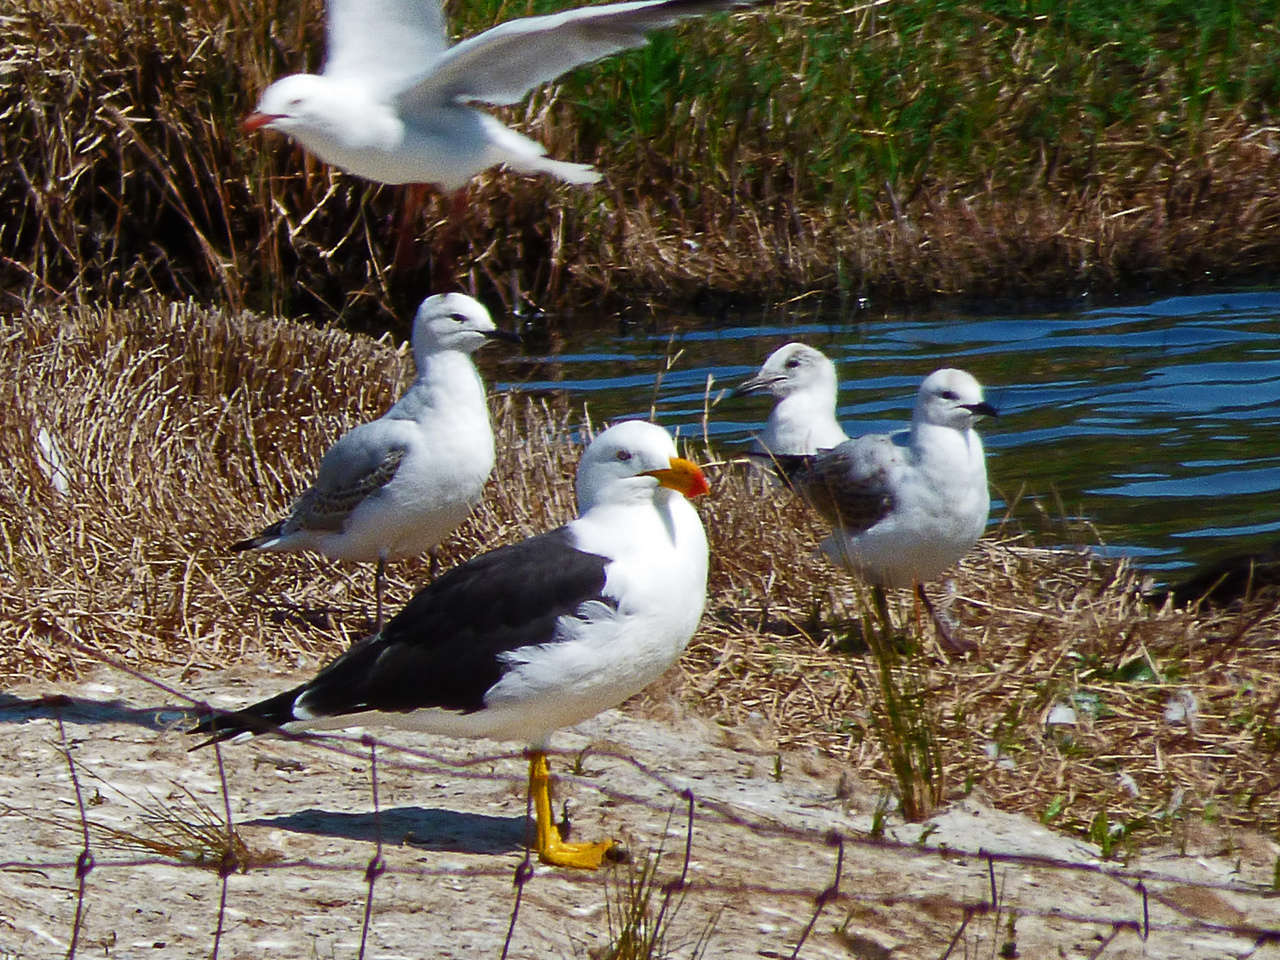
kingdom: Animalia
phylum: Chordata
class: Aves
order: Charadriiformes
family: Laridae
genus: Chroicocephalus
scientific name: Chroicocephalus novaehollandiae
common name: Silver gull
